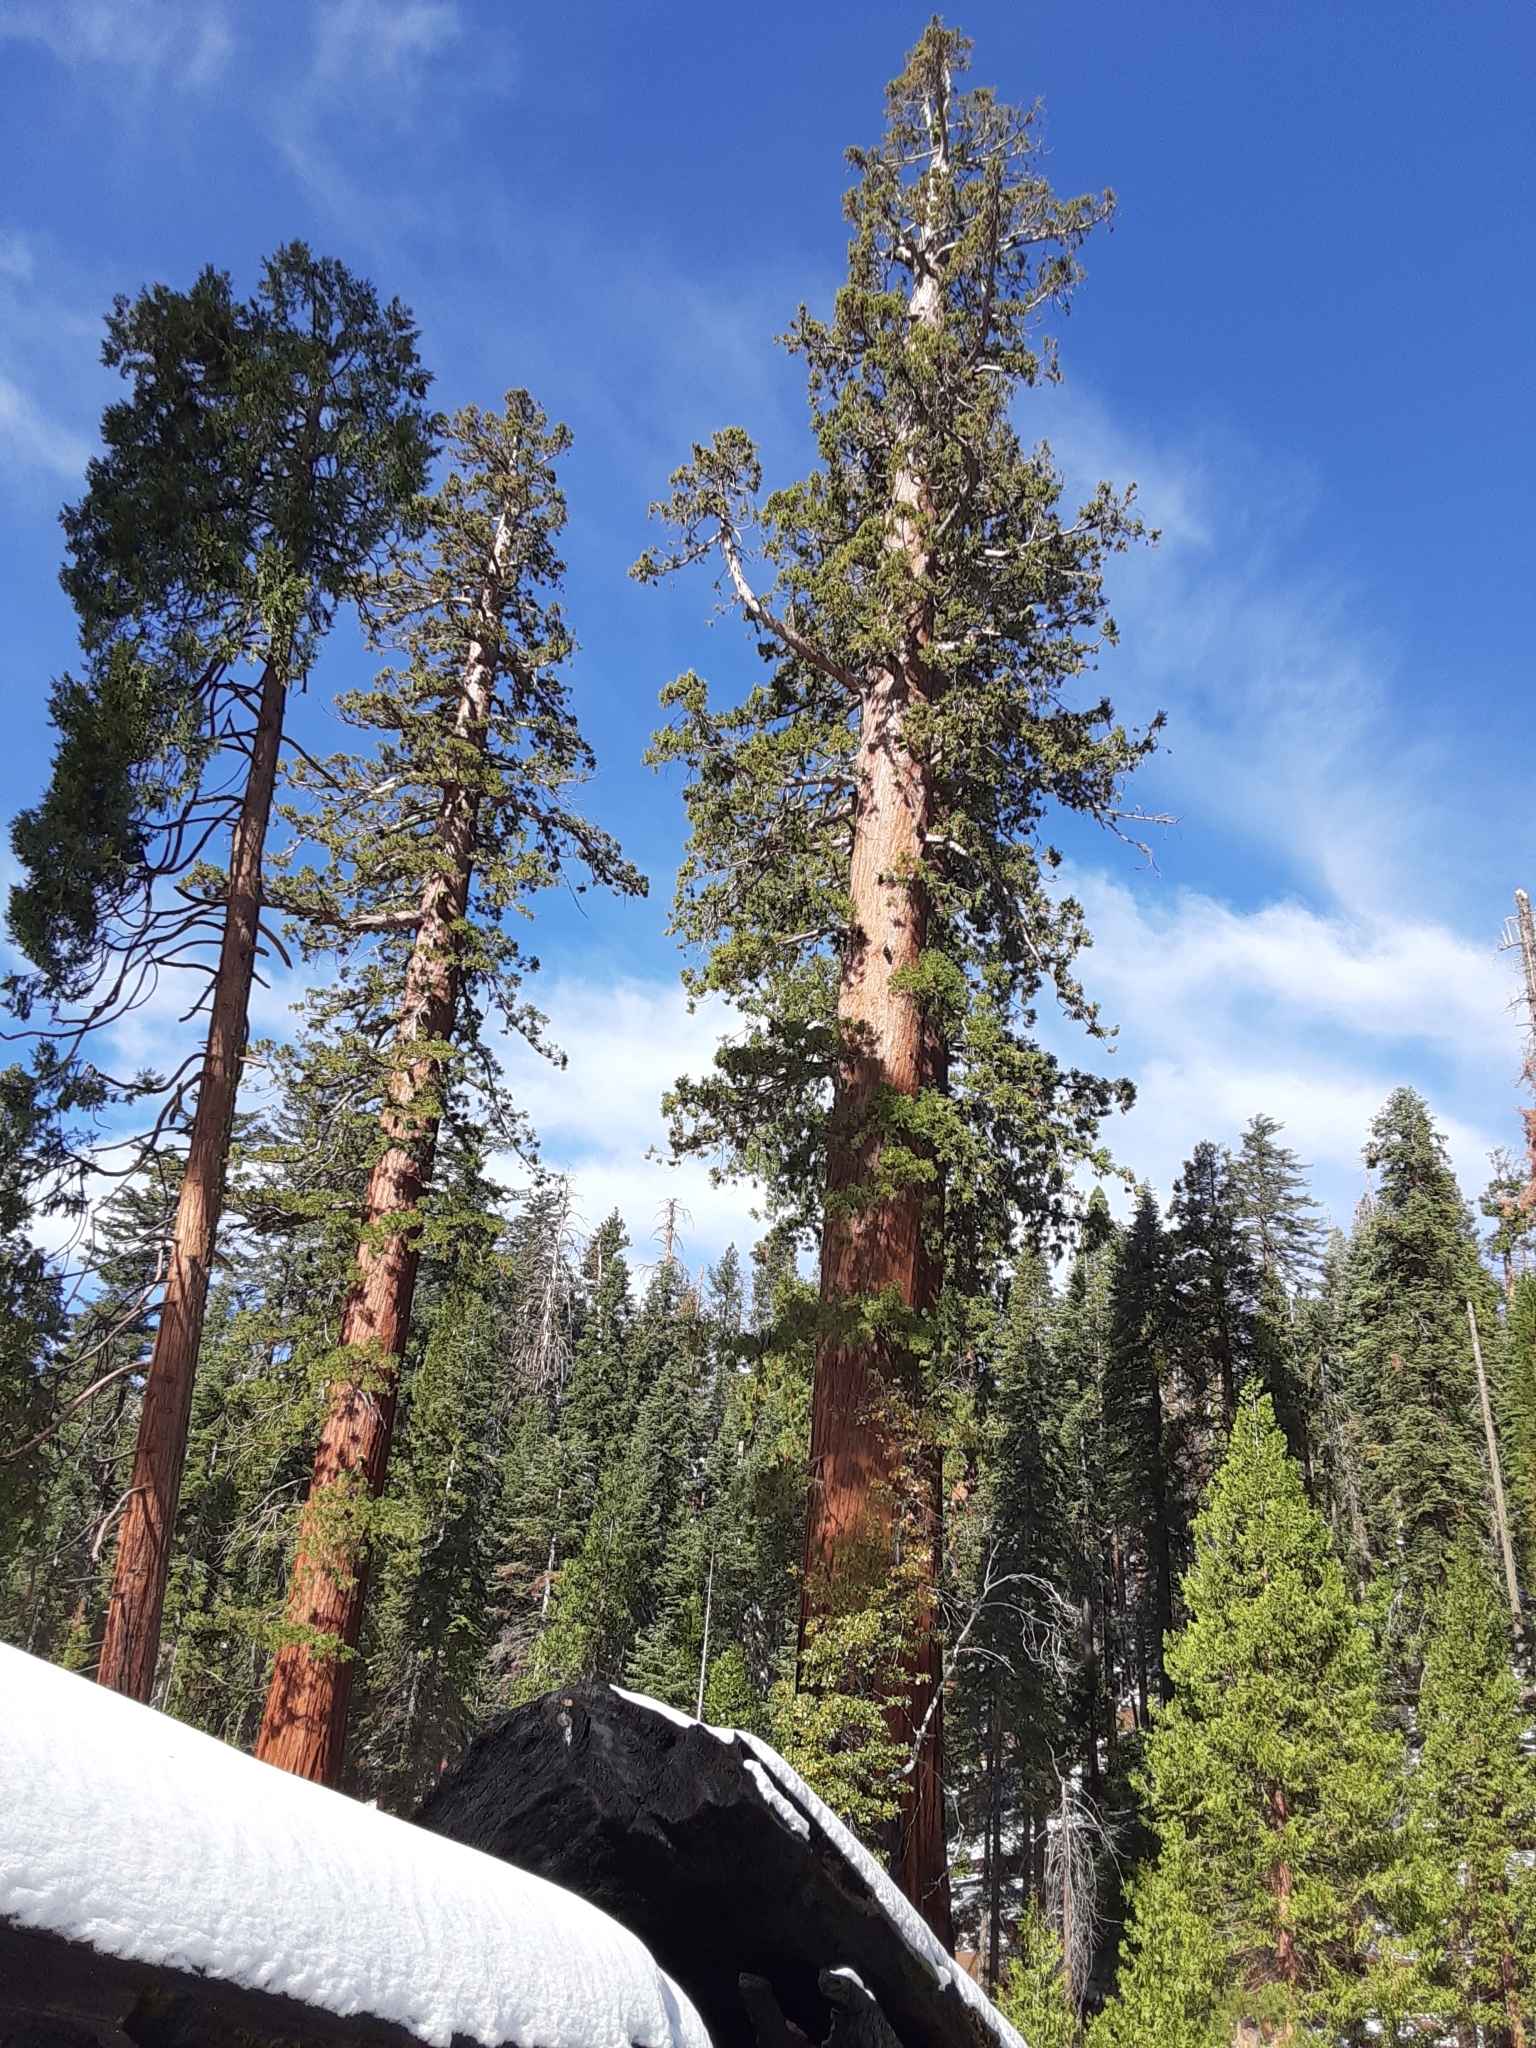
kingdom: Plantae
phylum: Tracheophyta
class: Pinopsida
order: Pinales
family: Cupressaceae
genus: Sequoiadendron
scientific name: Sequoiadendron giganteum
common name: Wellingtonia
